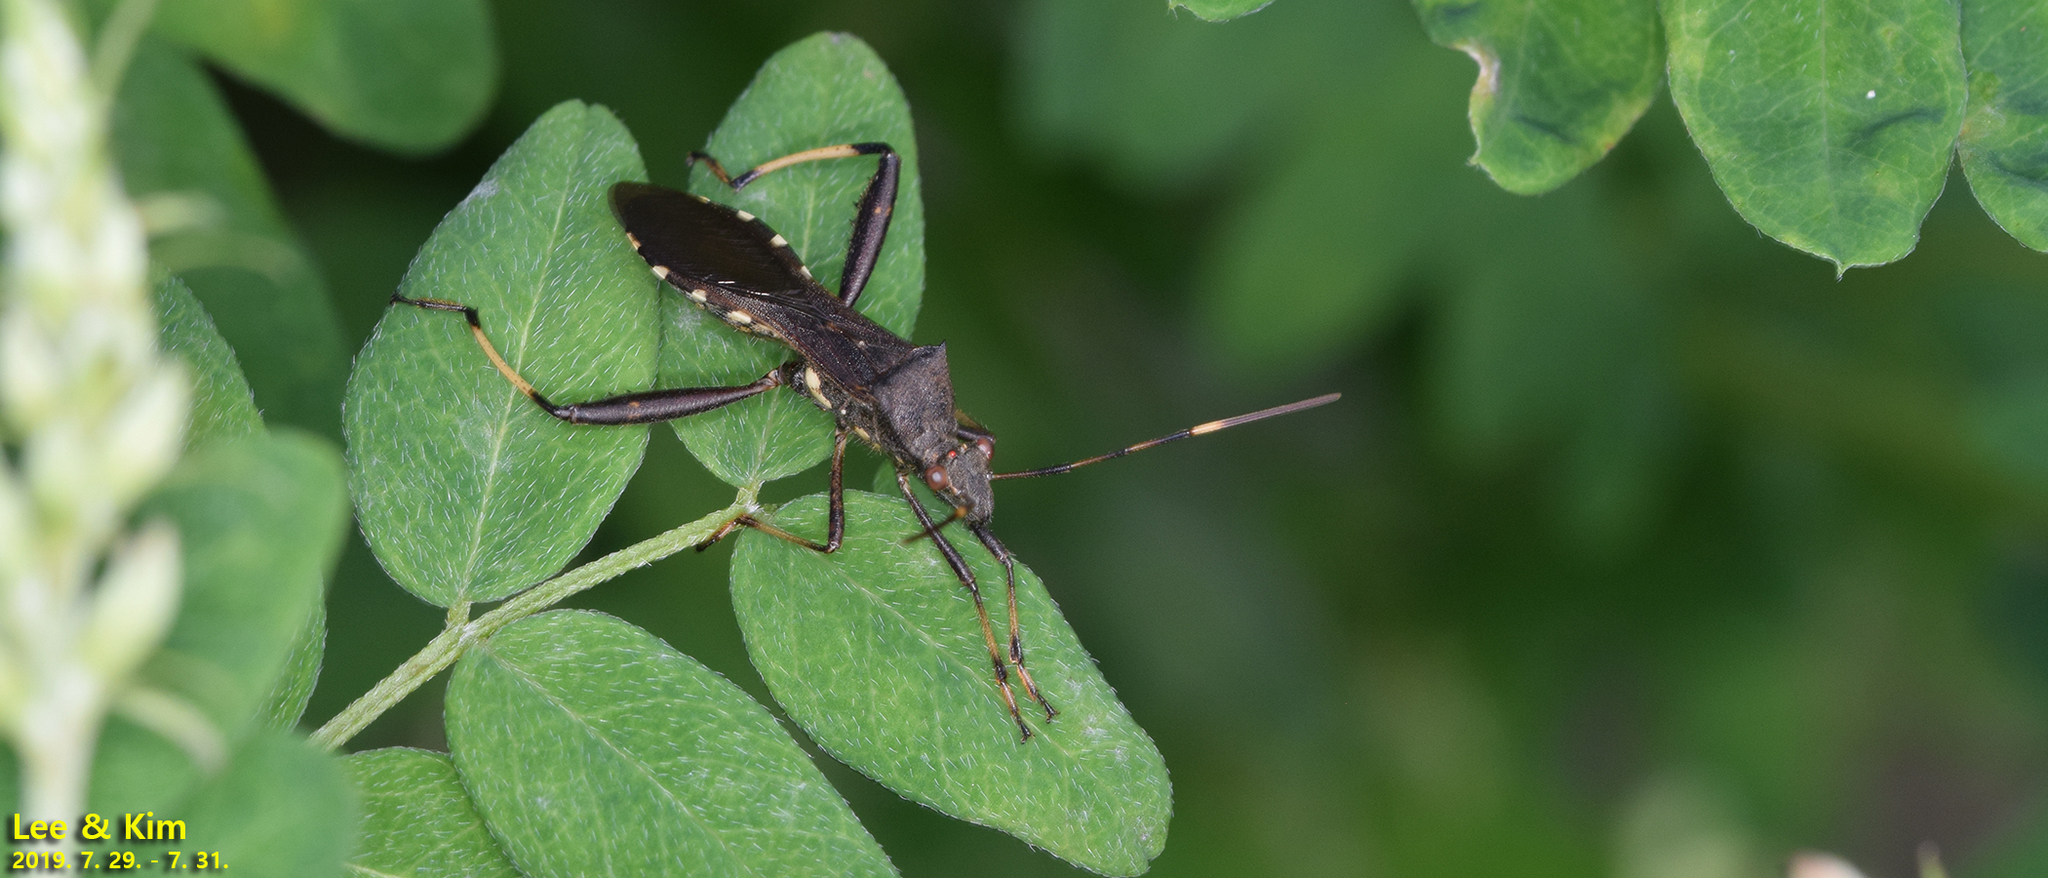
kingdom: Animalia
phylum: Arthropoda
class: Insecta
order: Hemiptera
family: Alydidae
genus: Riptortus
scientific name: Riptortus pedestris
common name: Bean bug
